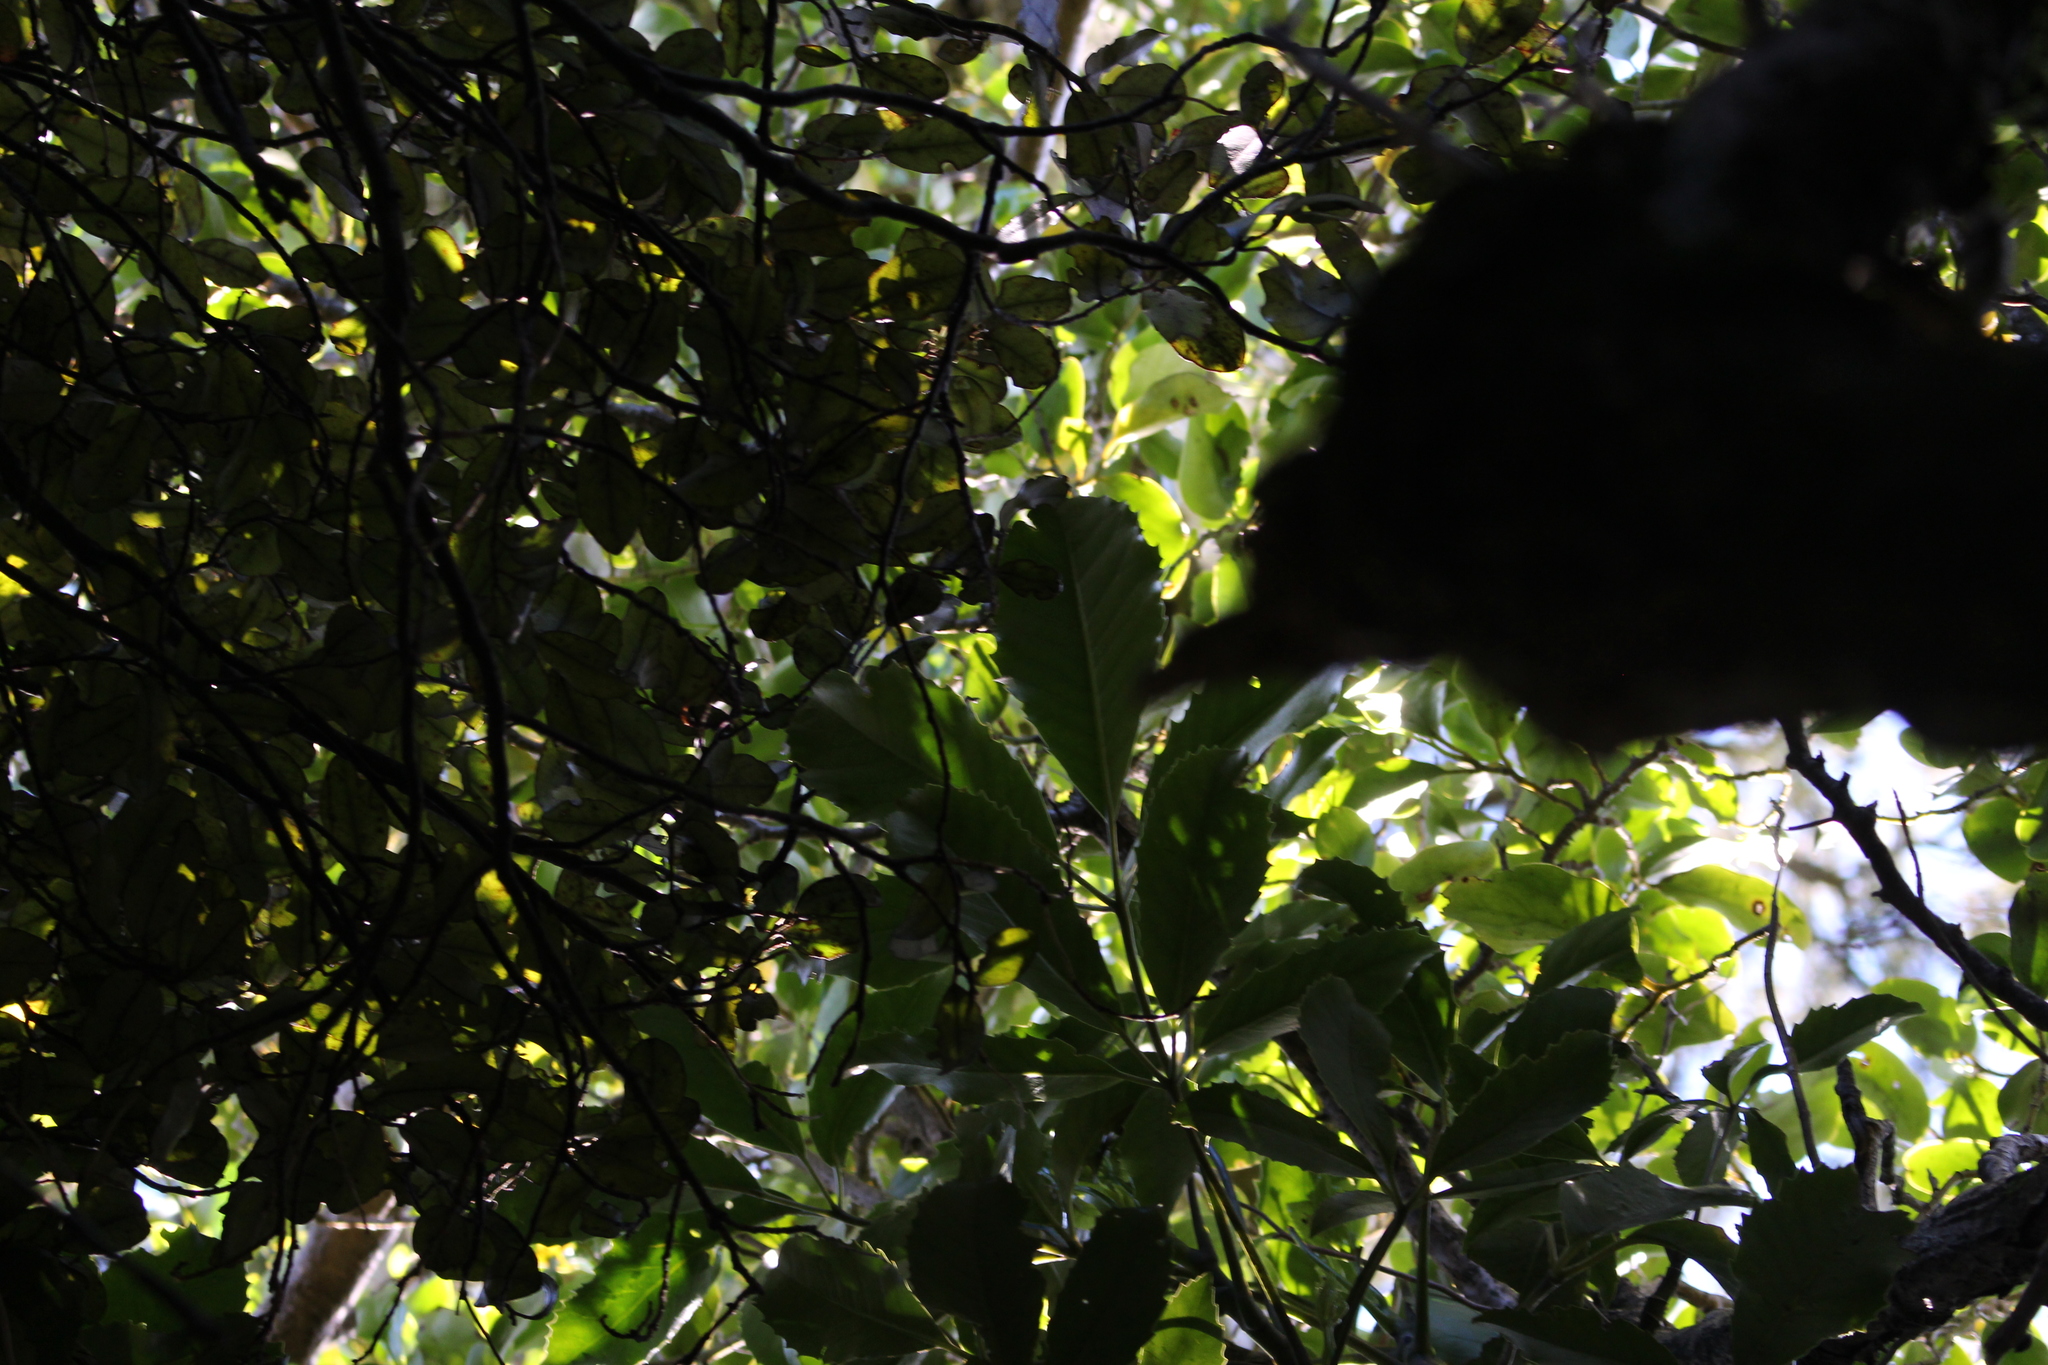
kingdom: Plantae
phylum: Tracheophyta
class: Magnoliopsida
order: Apiales
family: Araliaceae
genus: Neopanax
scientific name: Neopanax arboreus
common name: Five-fingers
